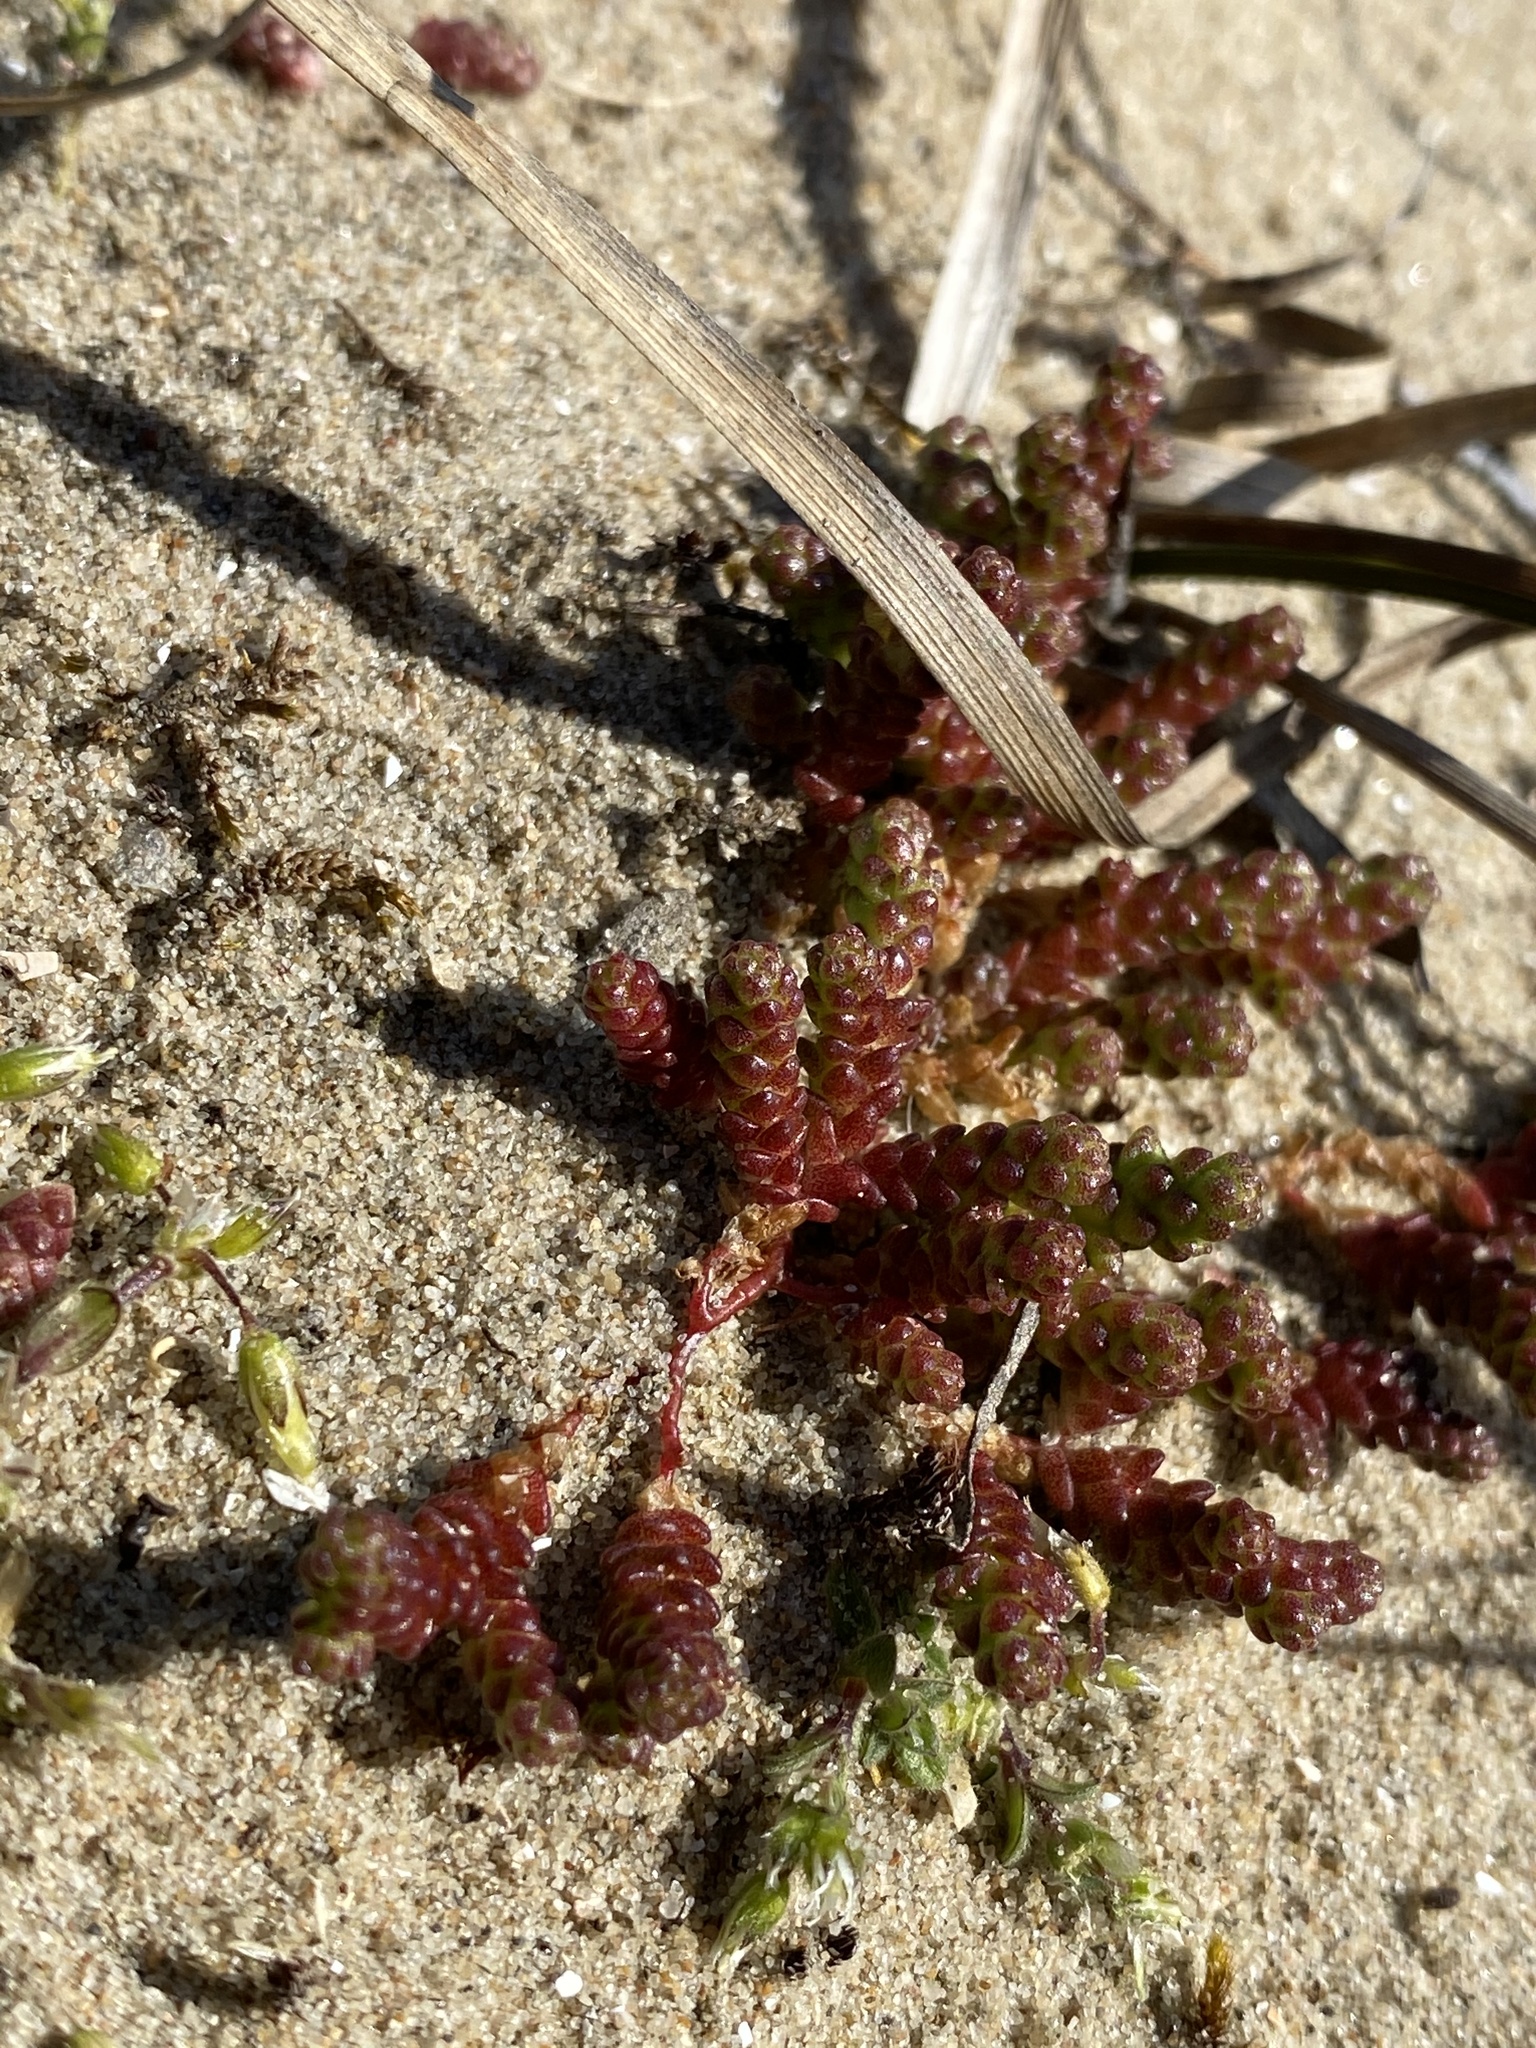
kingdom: Plantae
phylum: Tracheophyta
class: Magnoliopsida
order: Saxifragales
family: Crassulaceae
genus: Sedum
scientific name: Sedum acre
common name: Biting stonecrop
